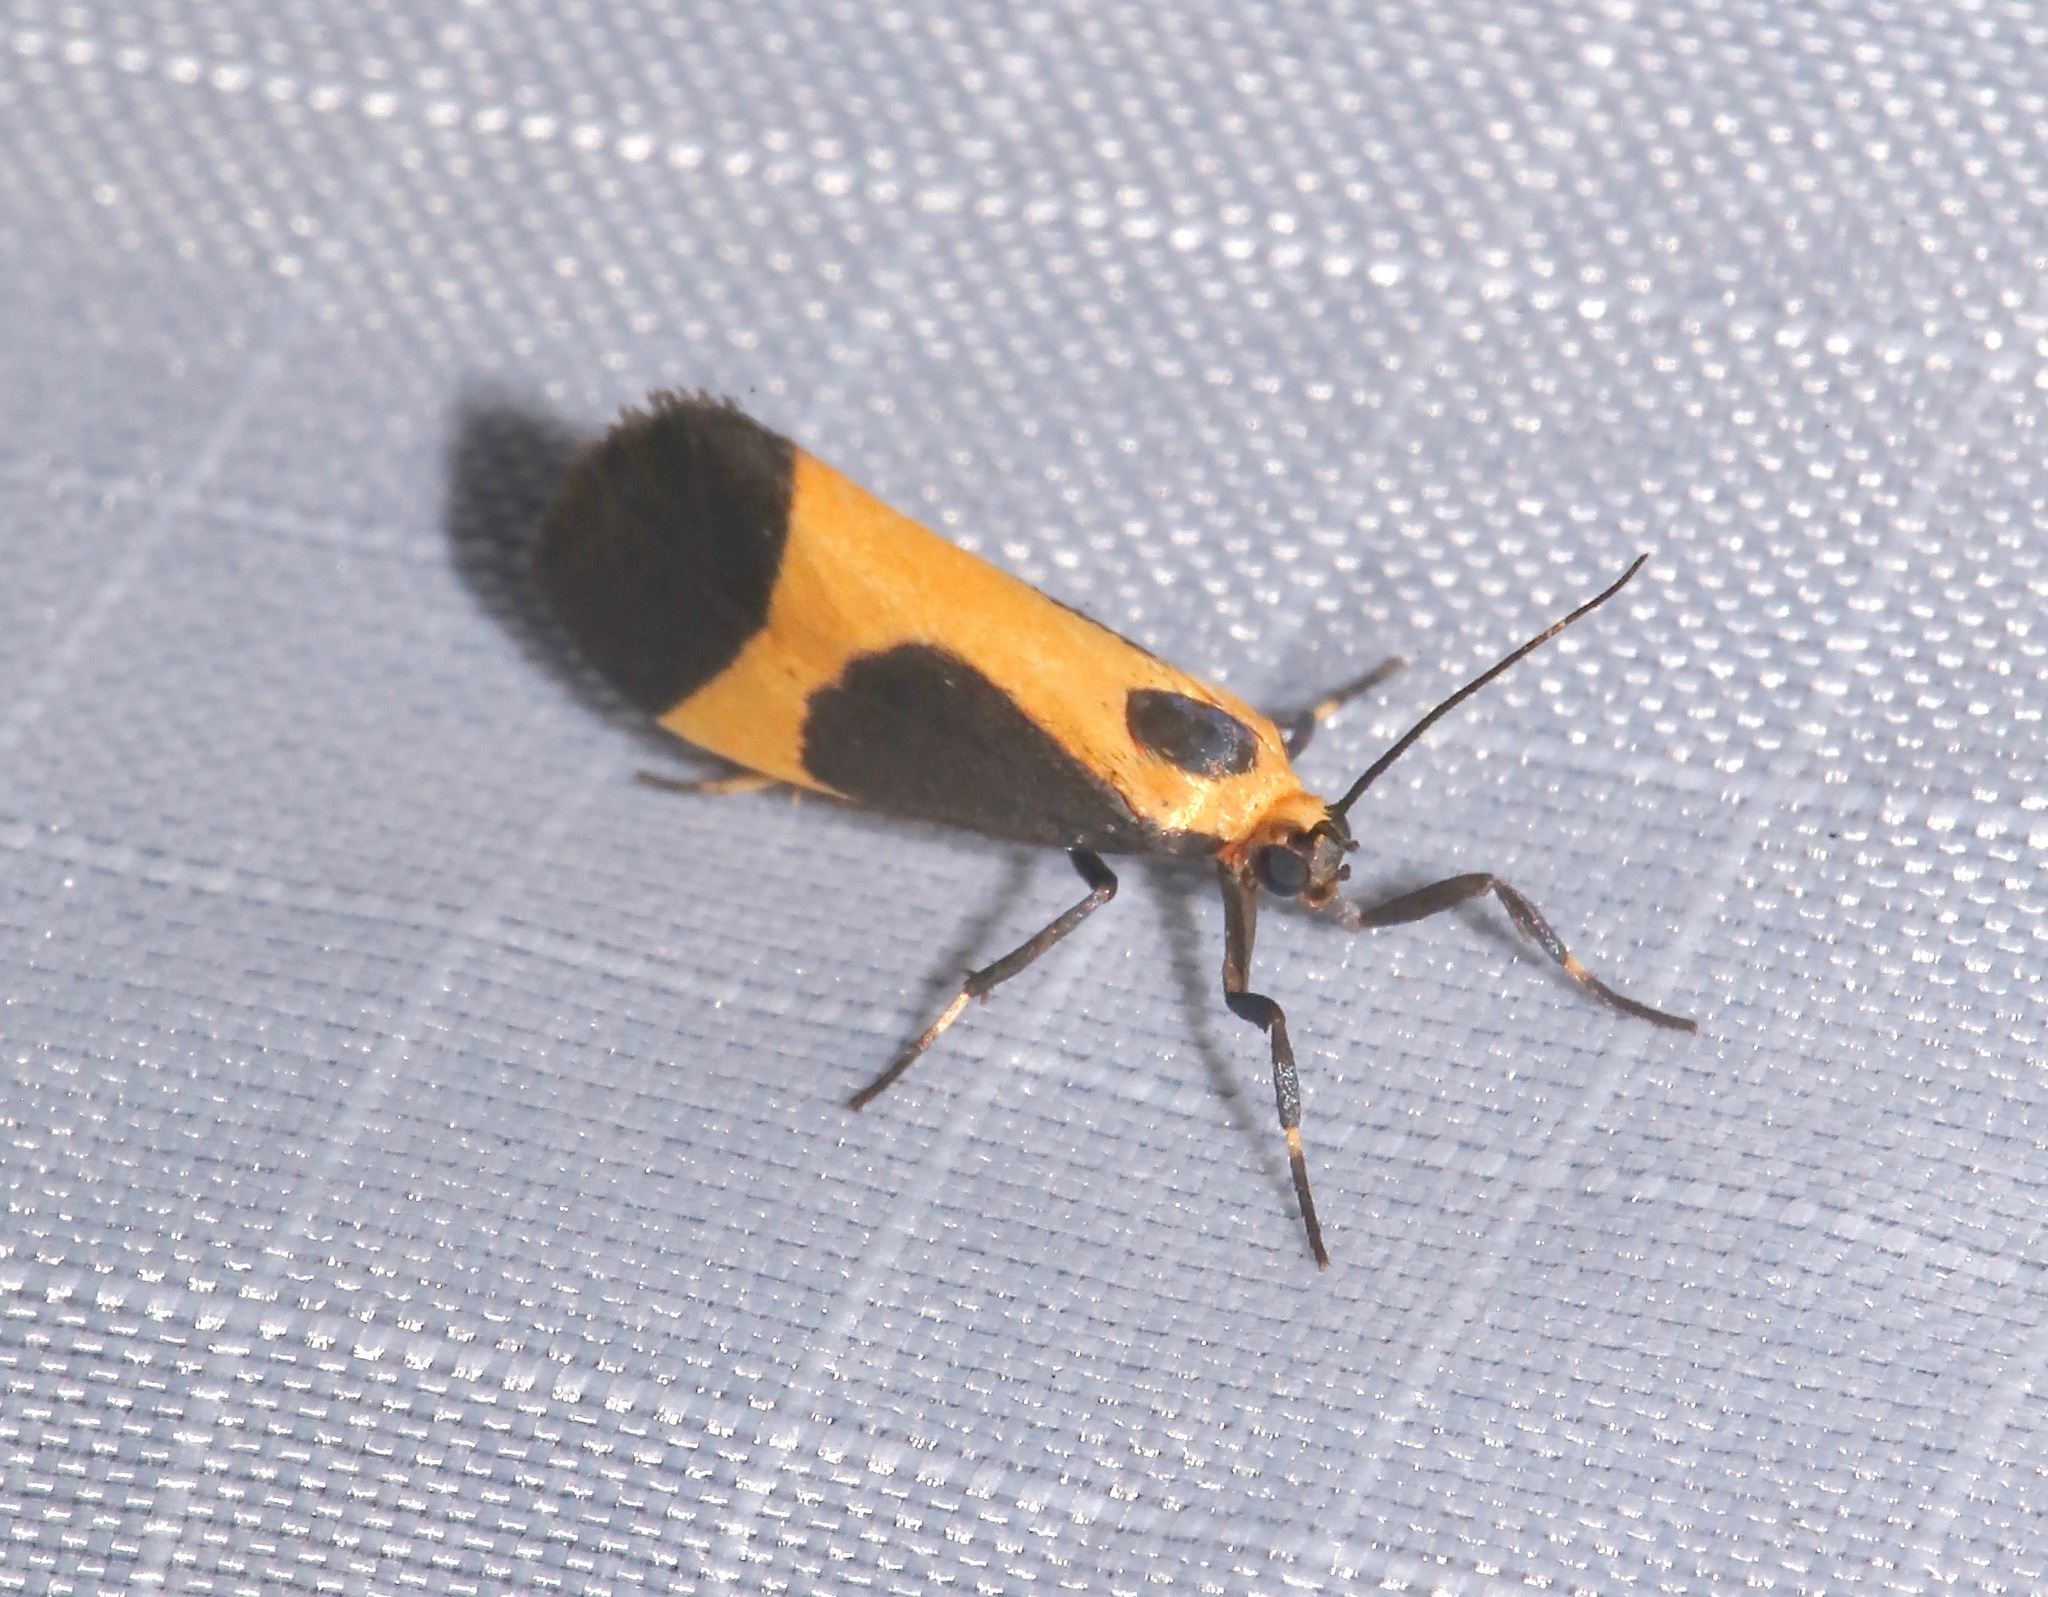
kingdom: Animalia
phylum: Arthropoda
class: Insecta
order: Lepidoptera
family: Erebidae
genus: Cisthene
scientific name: Cisthene kentuckiensis
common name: Kentucky lichen moth
